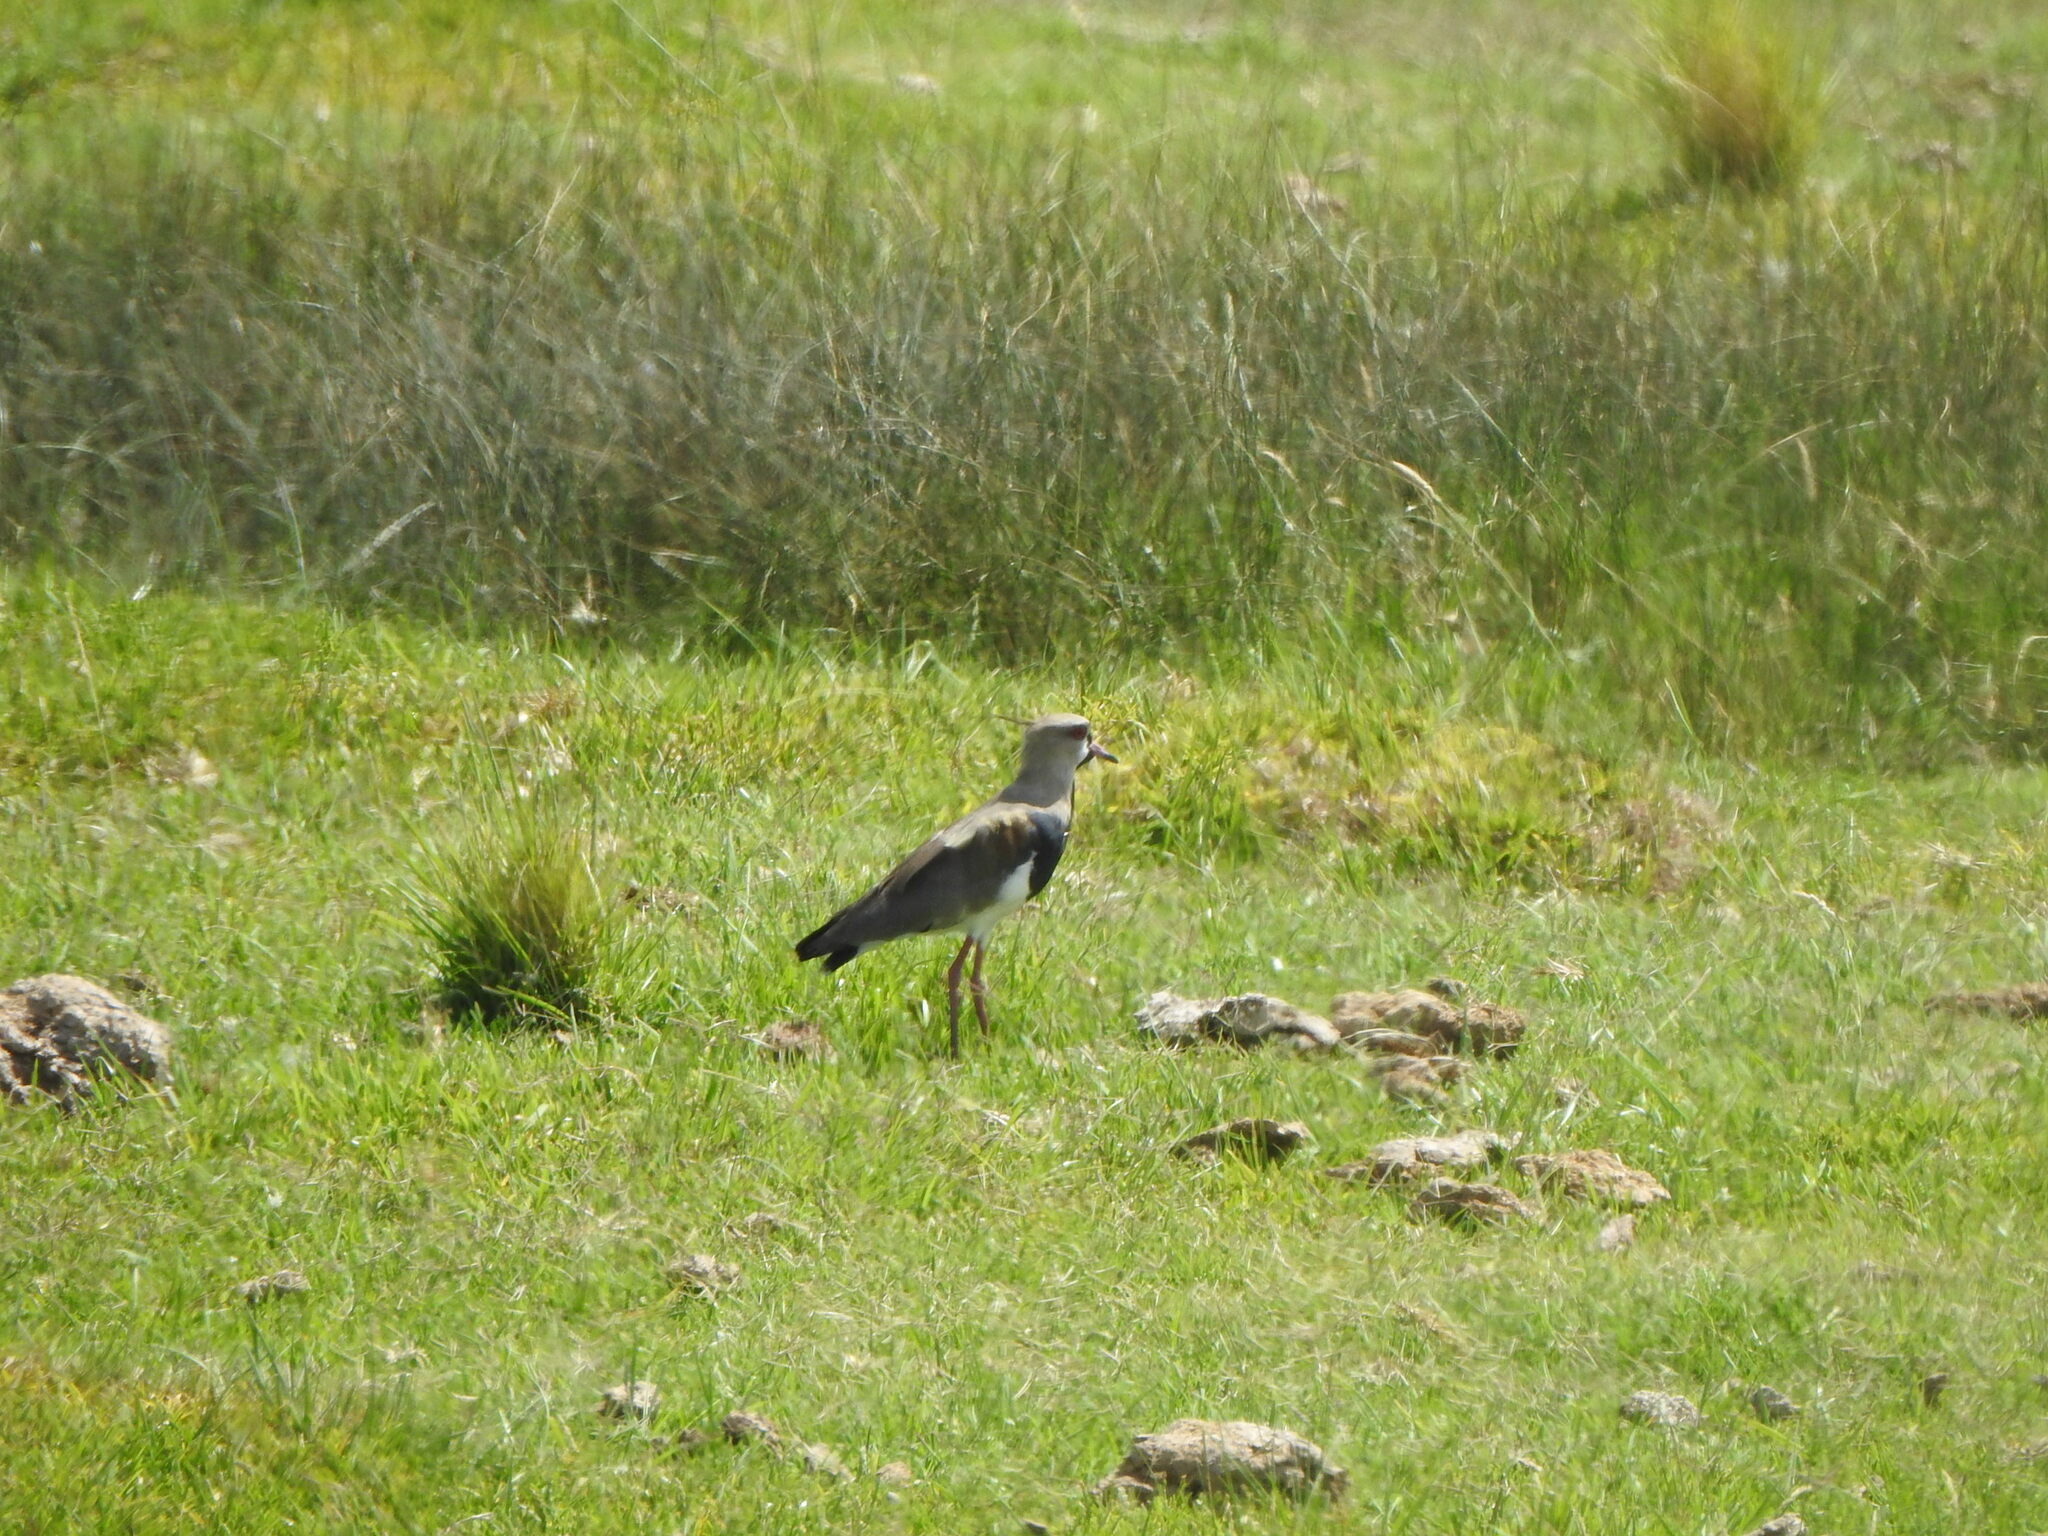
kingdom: Animalia
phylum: Chordata
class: Aves
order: Charadriiformes
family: Charadriidae
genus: Vanellus
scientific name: Vanellus chilensis
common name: Southern lapwing
